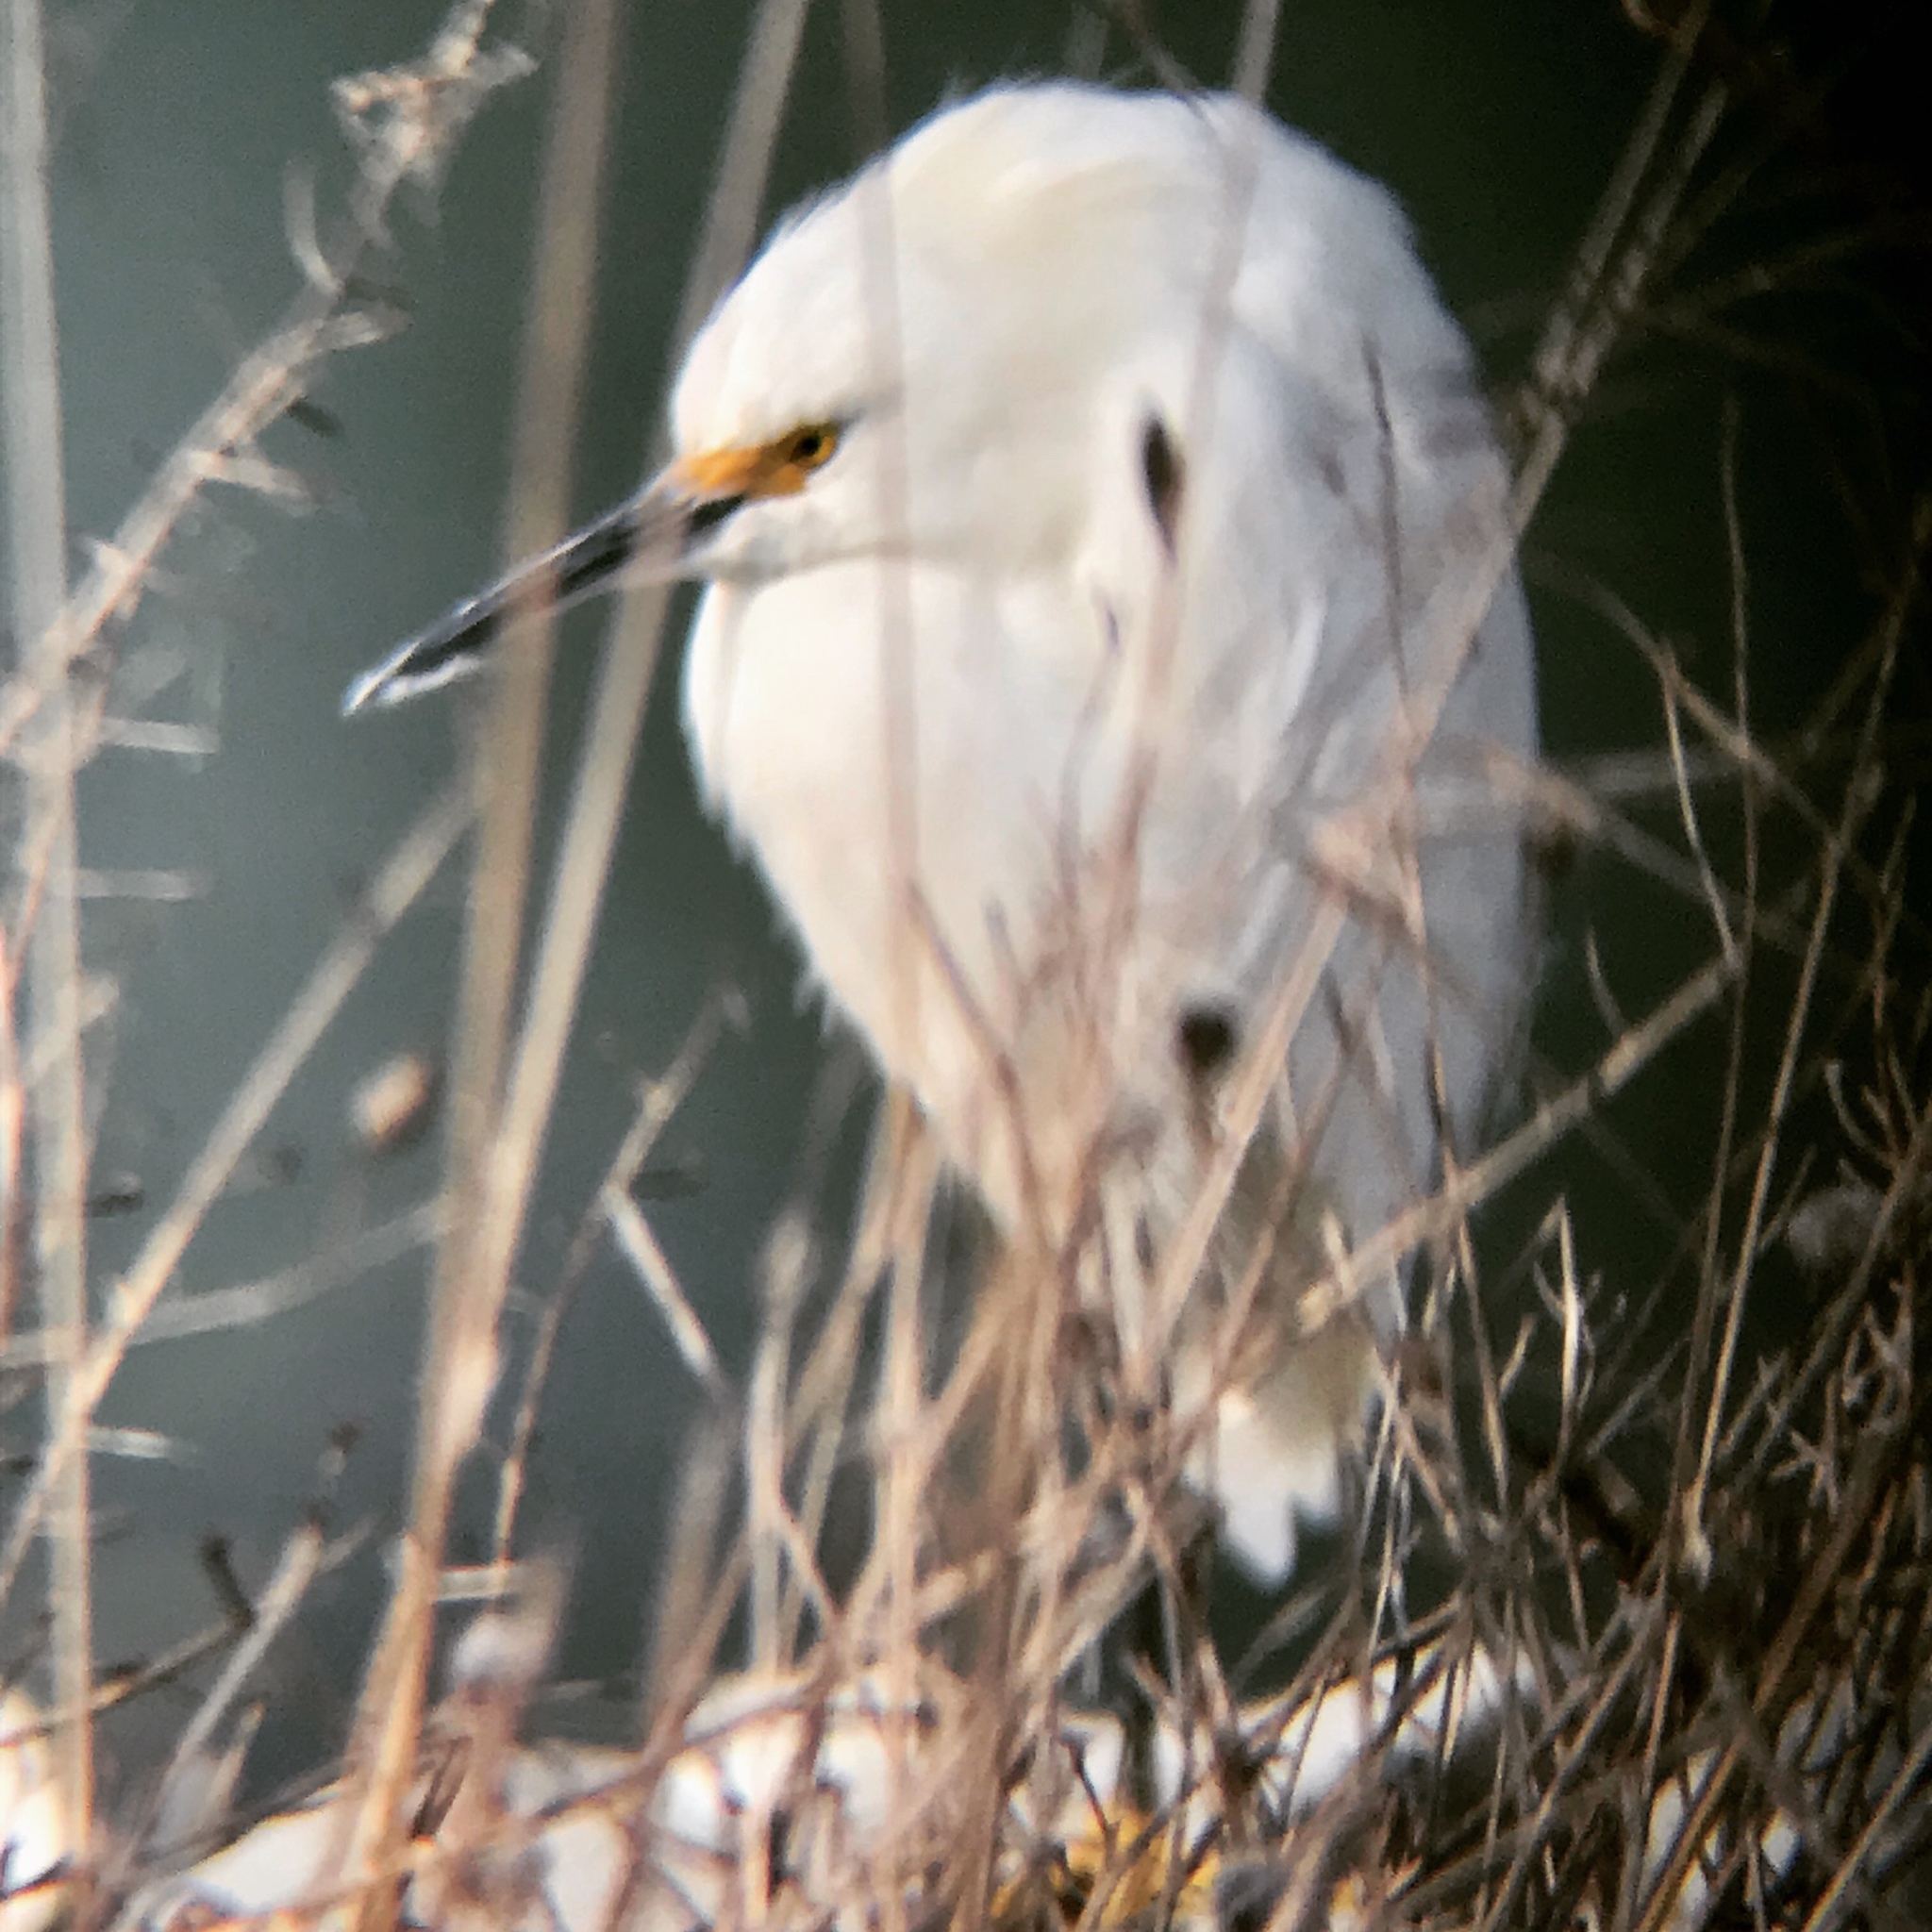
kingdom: Animalia
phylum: Chordata
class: Aves
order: Pelecaniformes
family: Ardeidae
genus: Egretta
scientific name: Egretta thula
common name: Snowy egret
